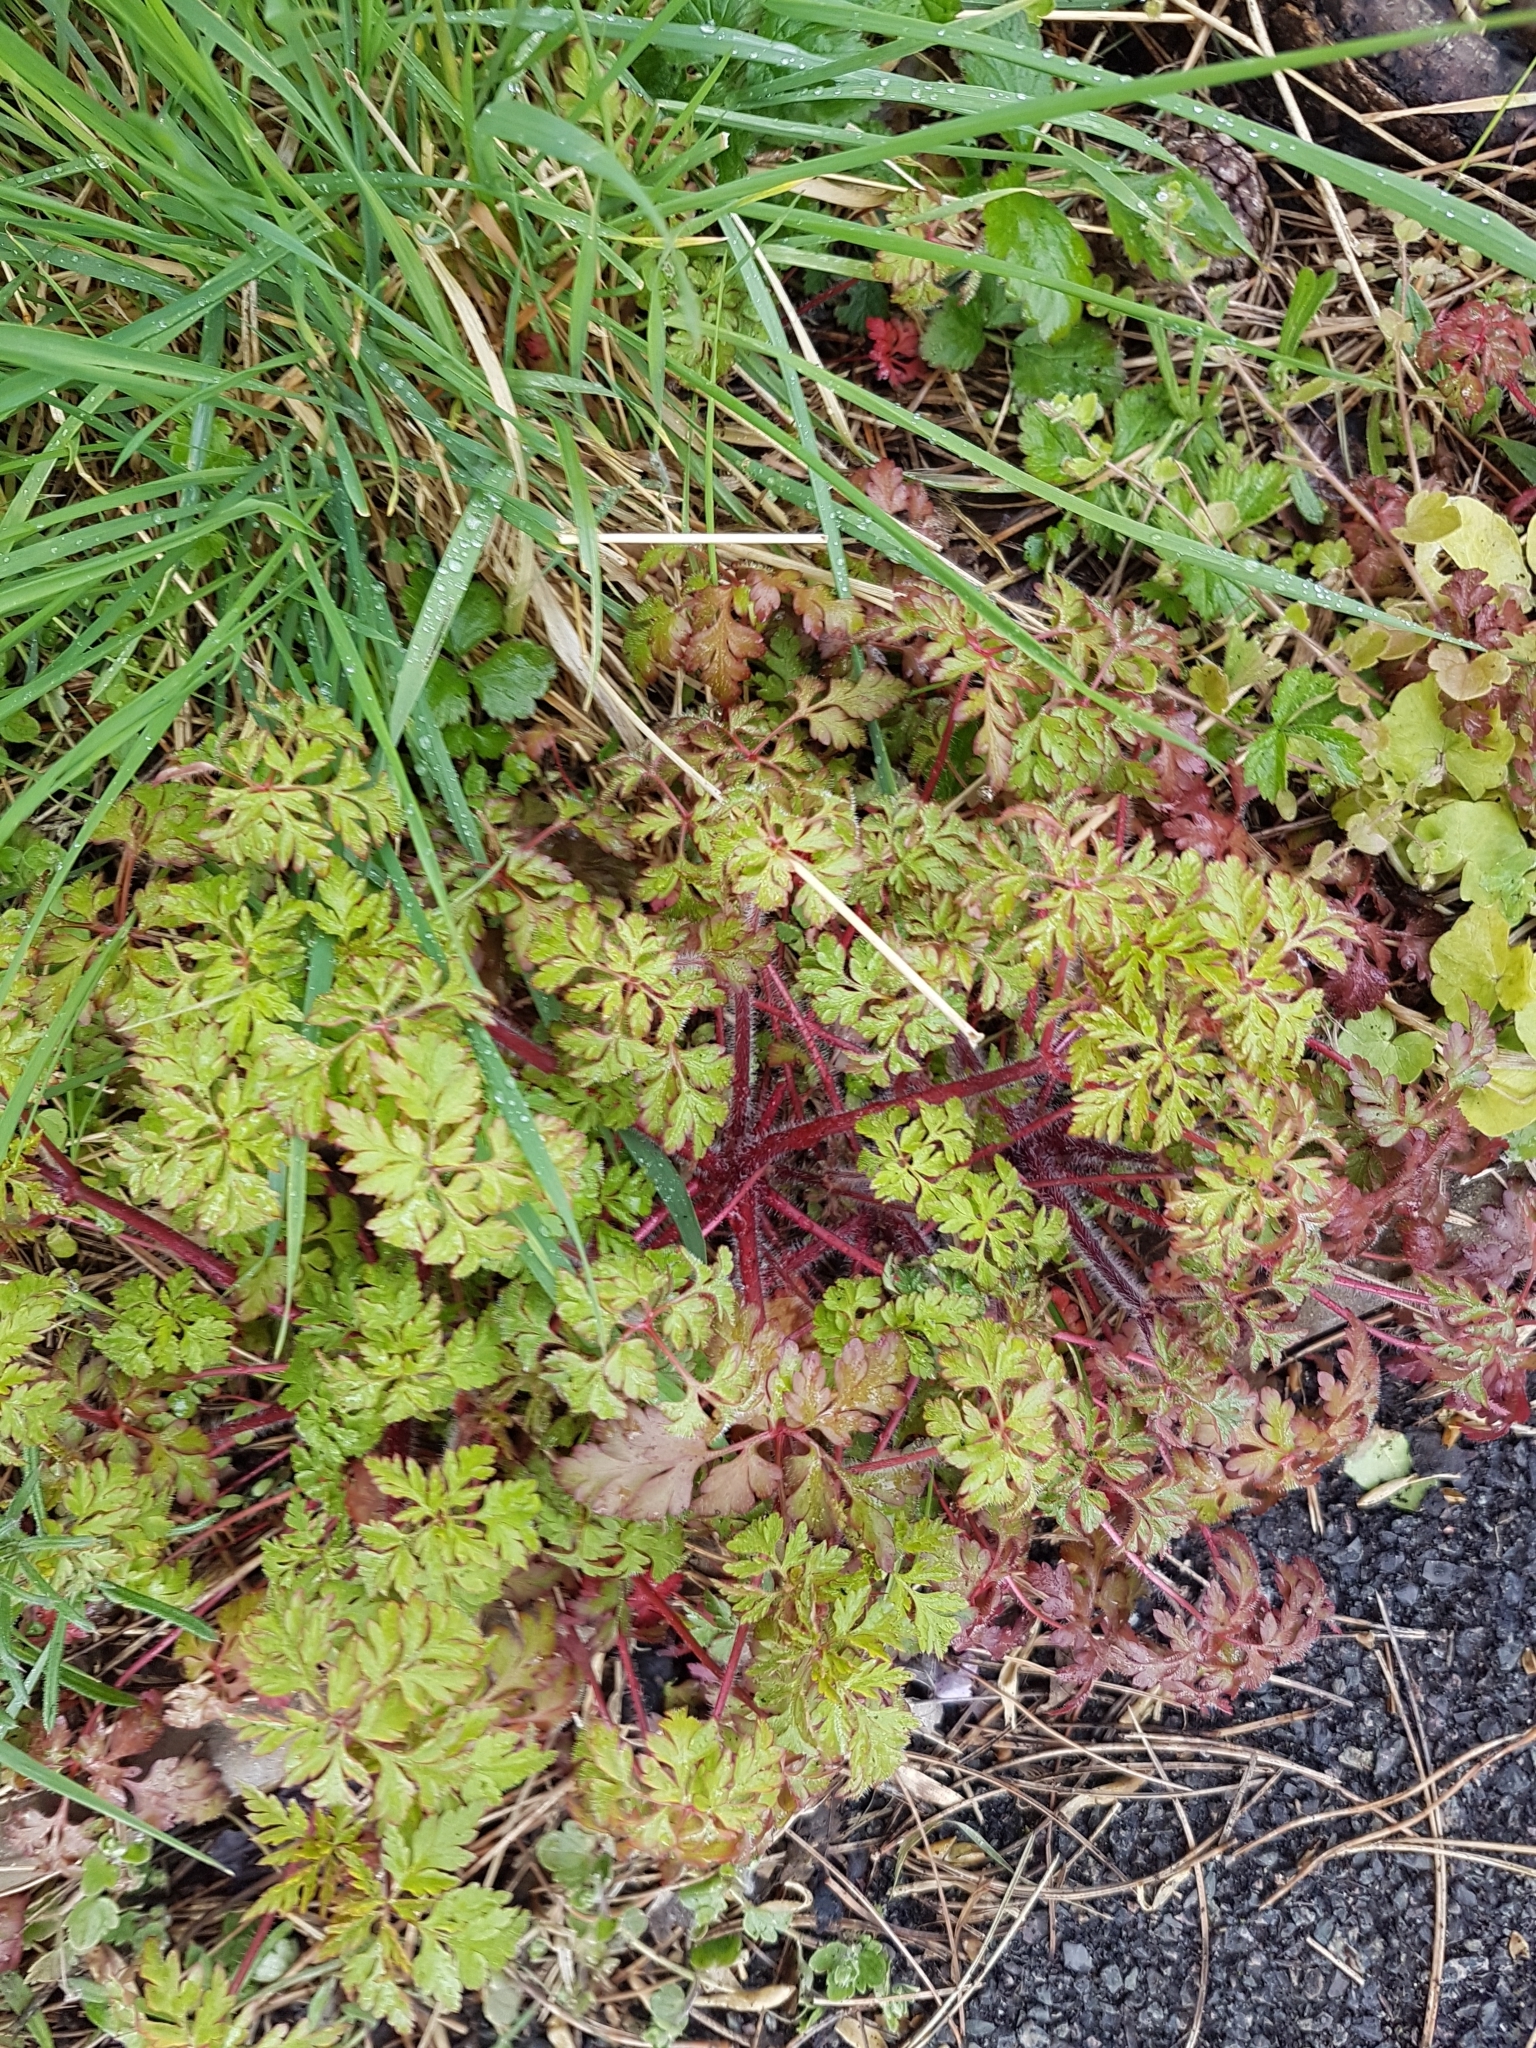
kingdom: Plantae
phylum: Tracheophyta
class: Magnoliopsida
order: Geraniales
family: Geraniaceae
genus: Geranium
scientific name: Geranium robertianum
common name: Herb-robert
